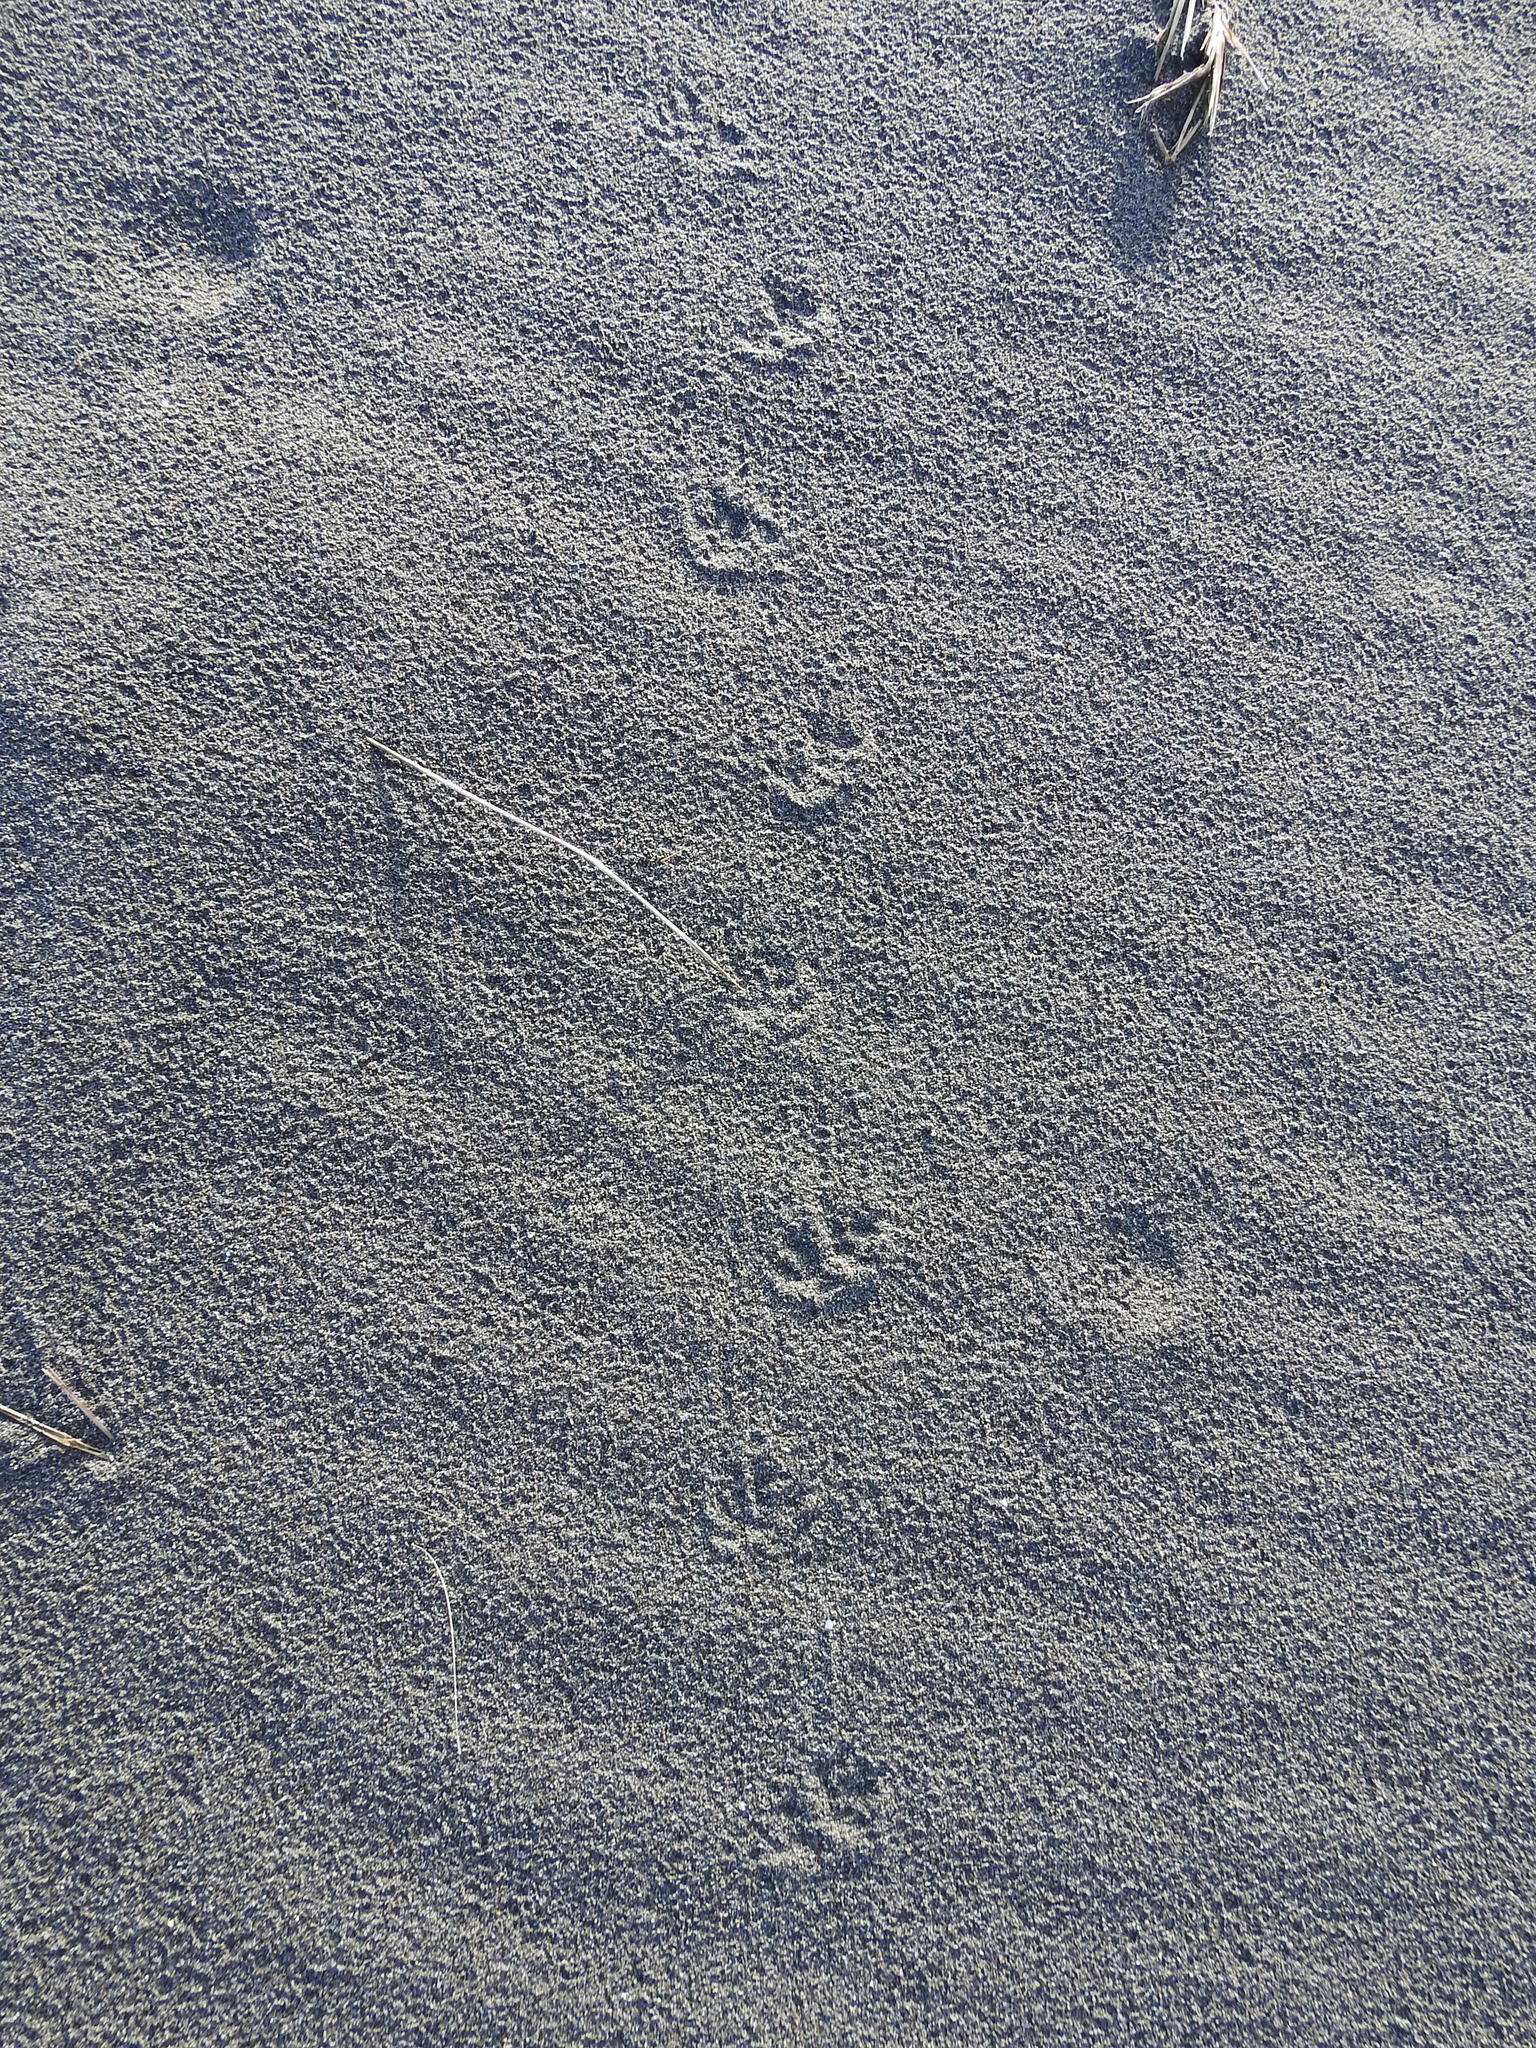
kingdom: Animalia
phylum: Chordata
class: Mammalia
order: Erinaceomorpha
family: Erinaceidae
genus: Erinaceus
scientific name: Erinaceus europaeus
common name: West european hedgehog
